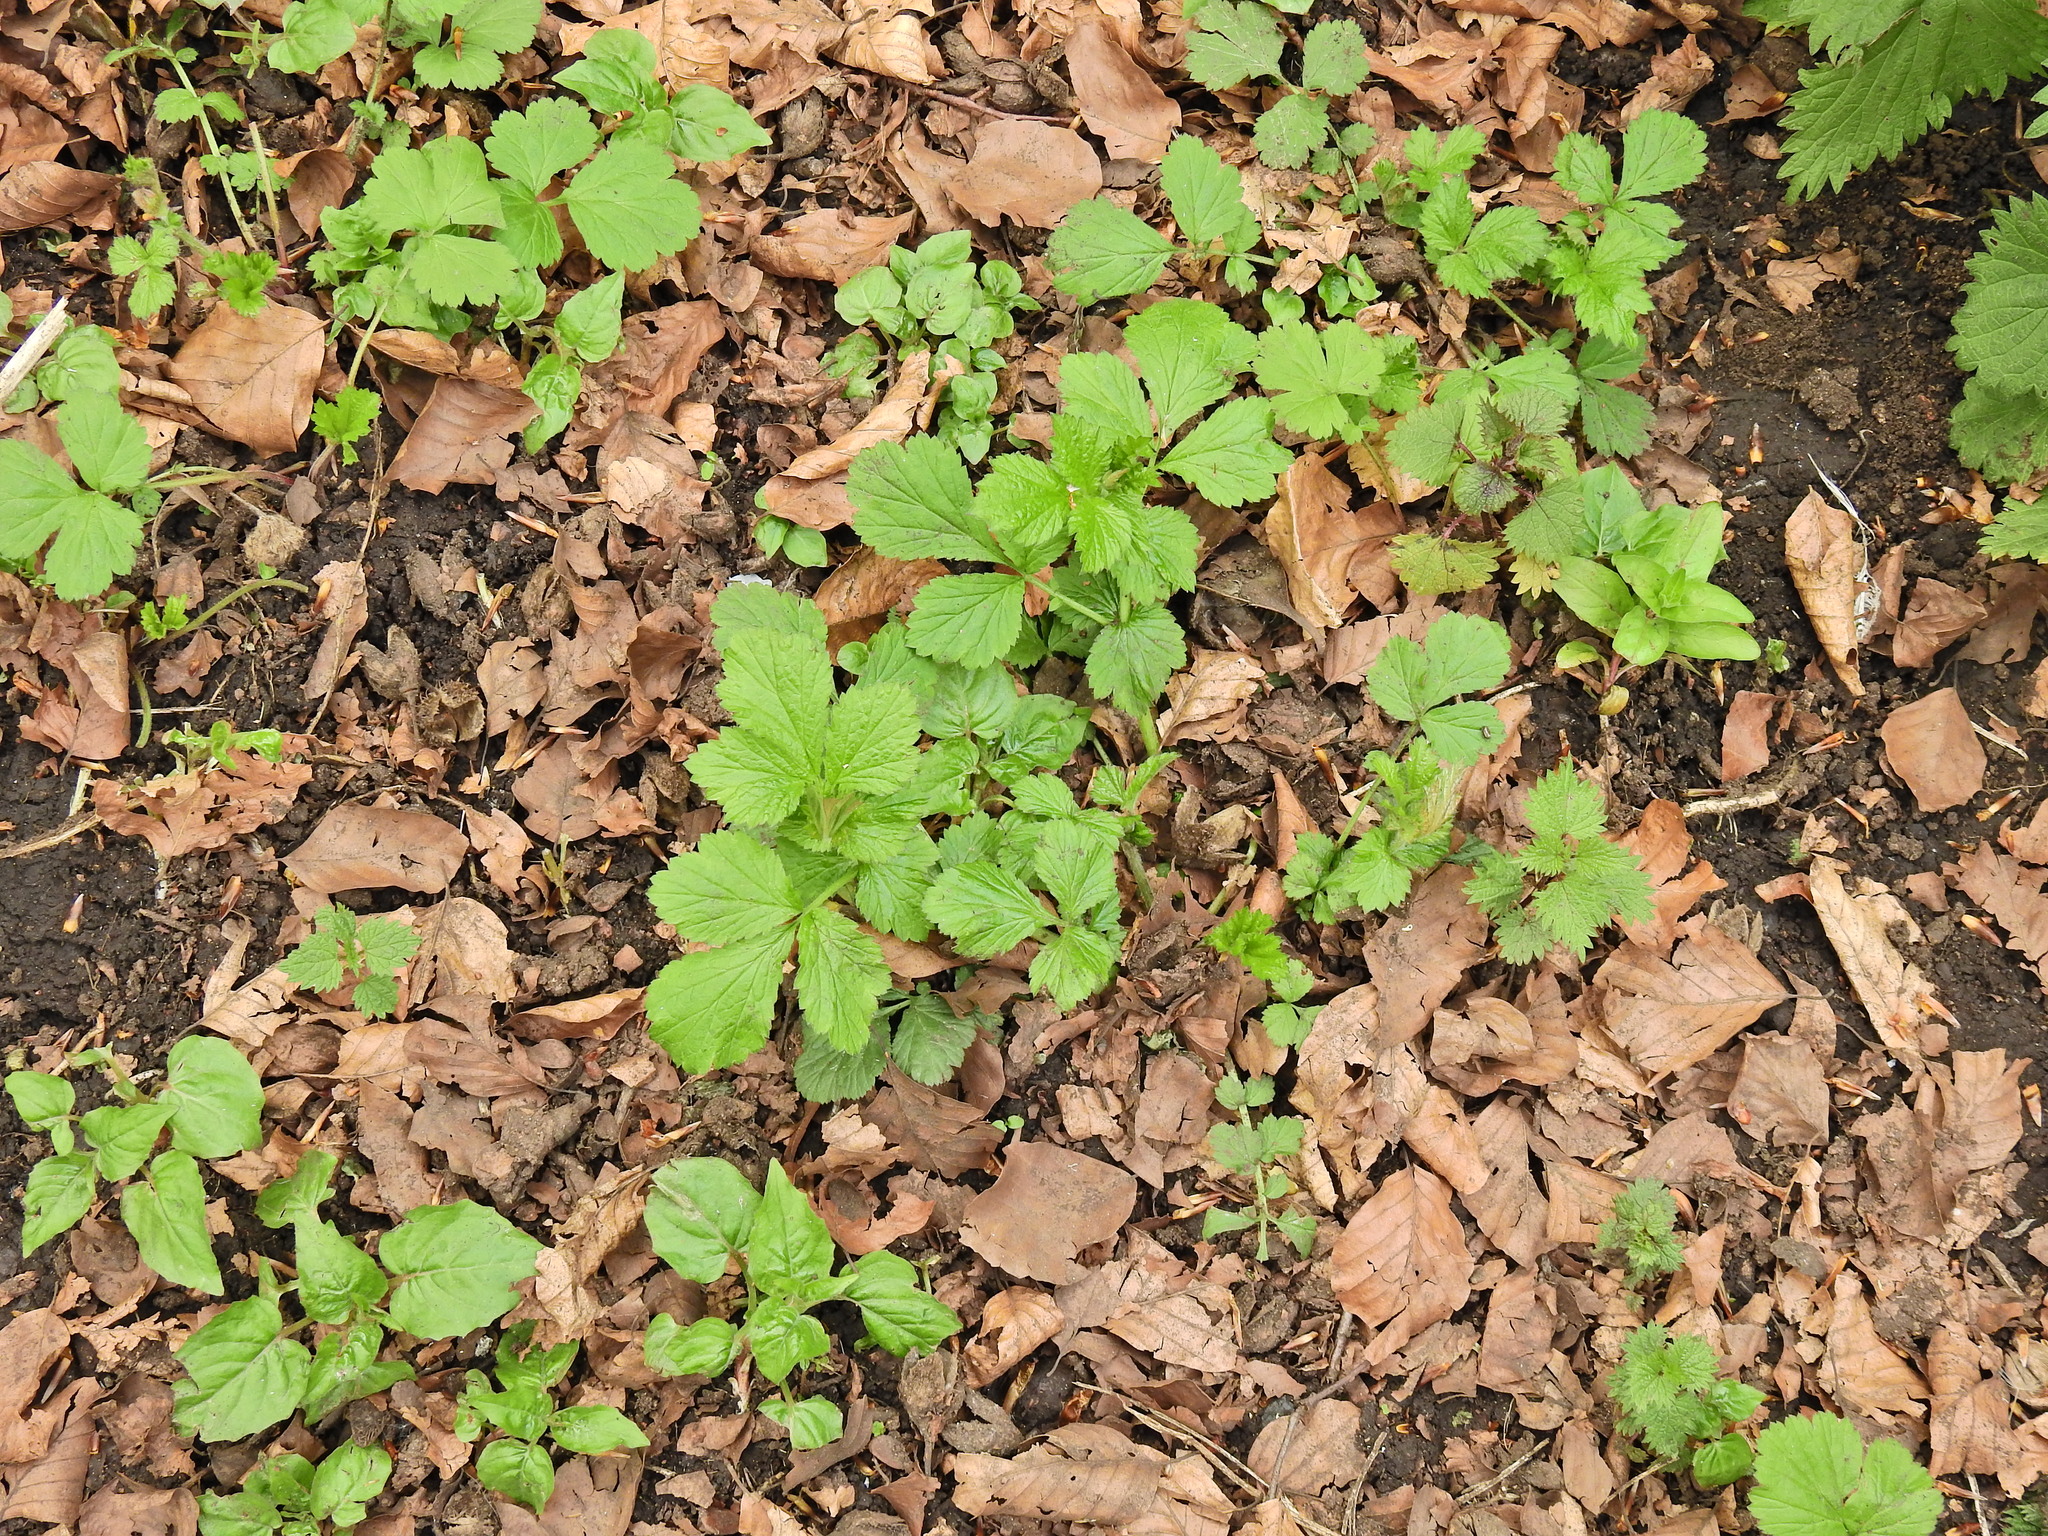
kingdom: Plantae
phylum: Tracheophyta
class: Magnoliopsida
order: Rosales
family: Rosaceae
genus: Geum
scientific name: Geum urbanum
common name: Wood avens
